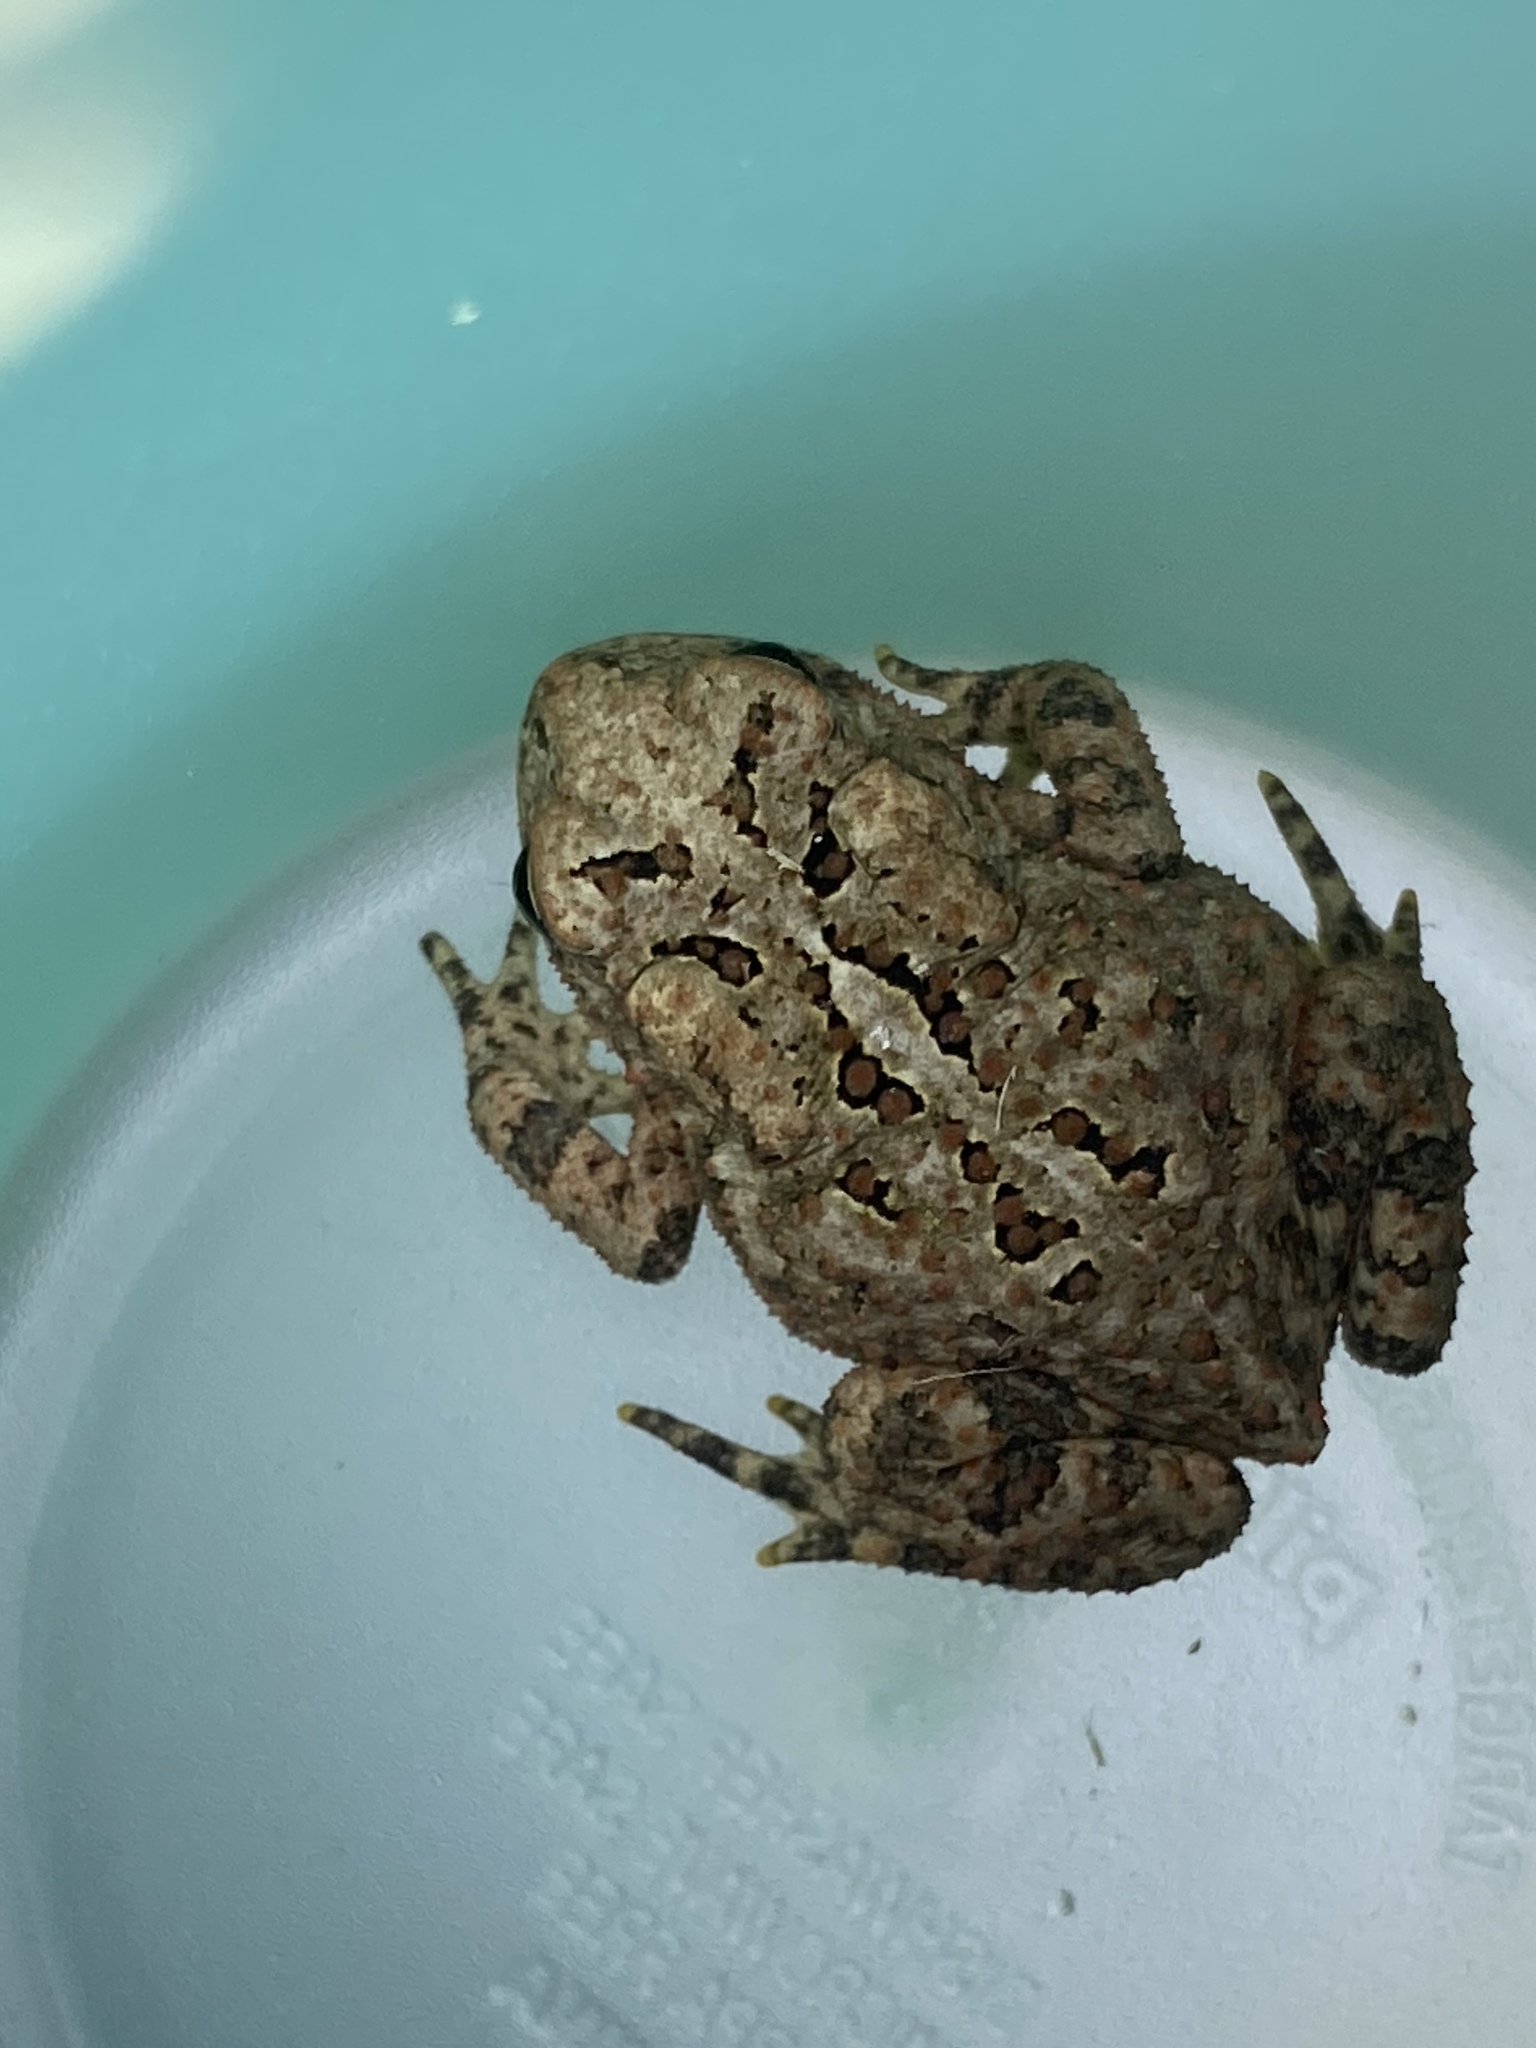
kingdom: Animalia
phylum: Chordata
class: Amphibia
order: Anura
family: Bufonidae
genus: Anaxyrus
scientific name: Anaxyrus americanus
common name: American toad
